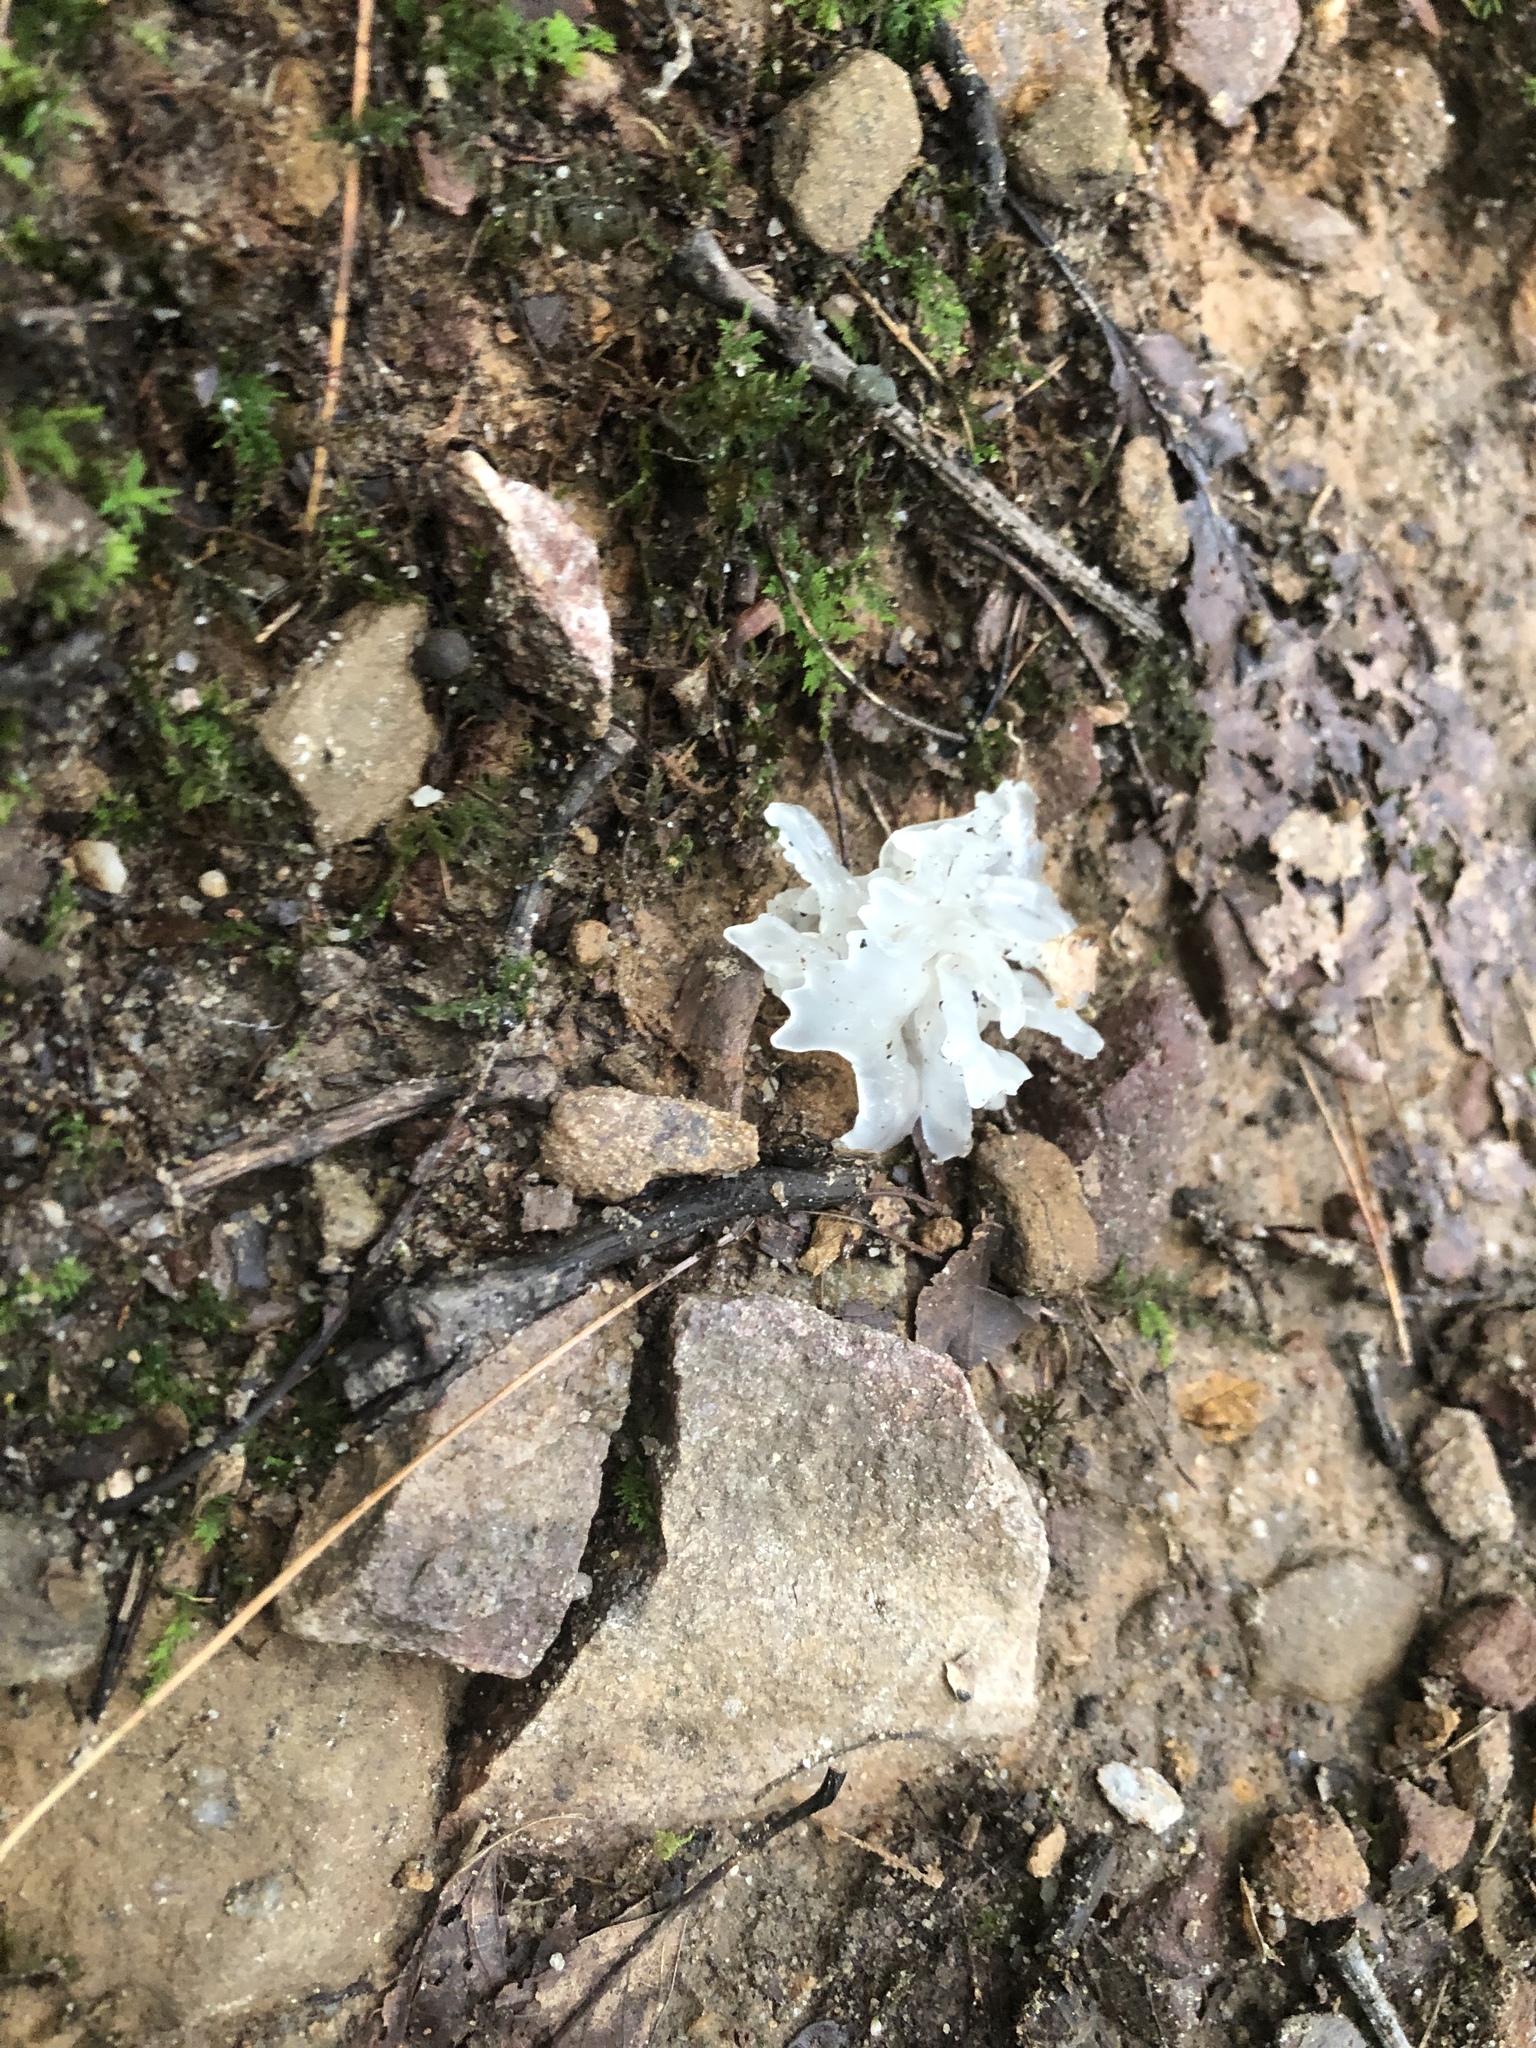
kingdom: Fungi
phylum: Basidiomycota
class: Tremellomycetes
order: Tremellales
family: Tremellaceae
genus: Tremella
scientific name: Tremella fuciformis
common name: Snow fungus
